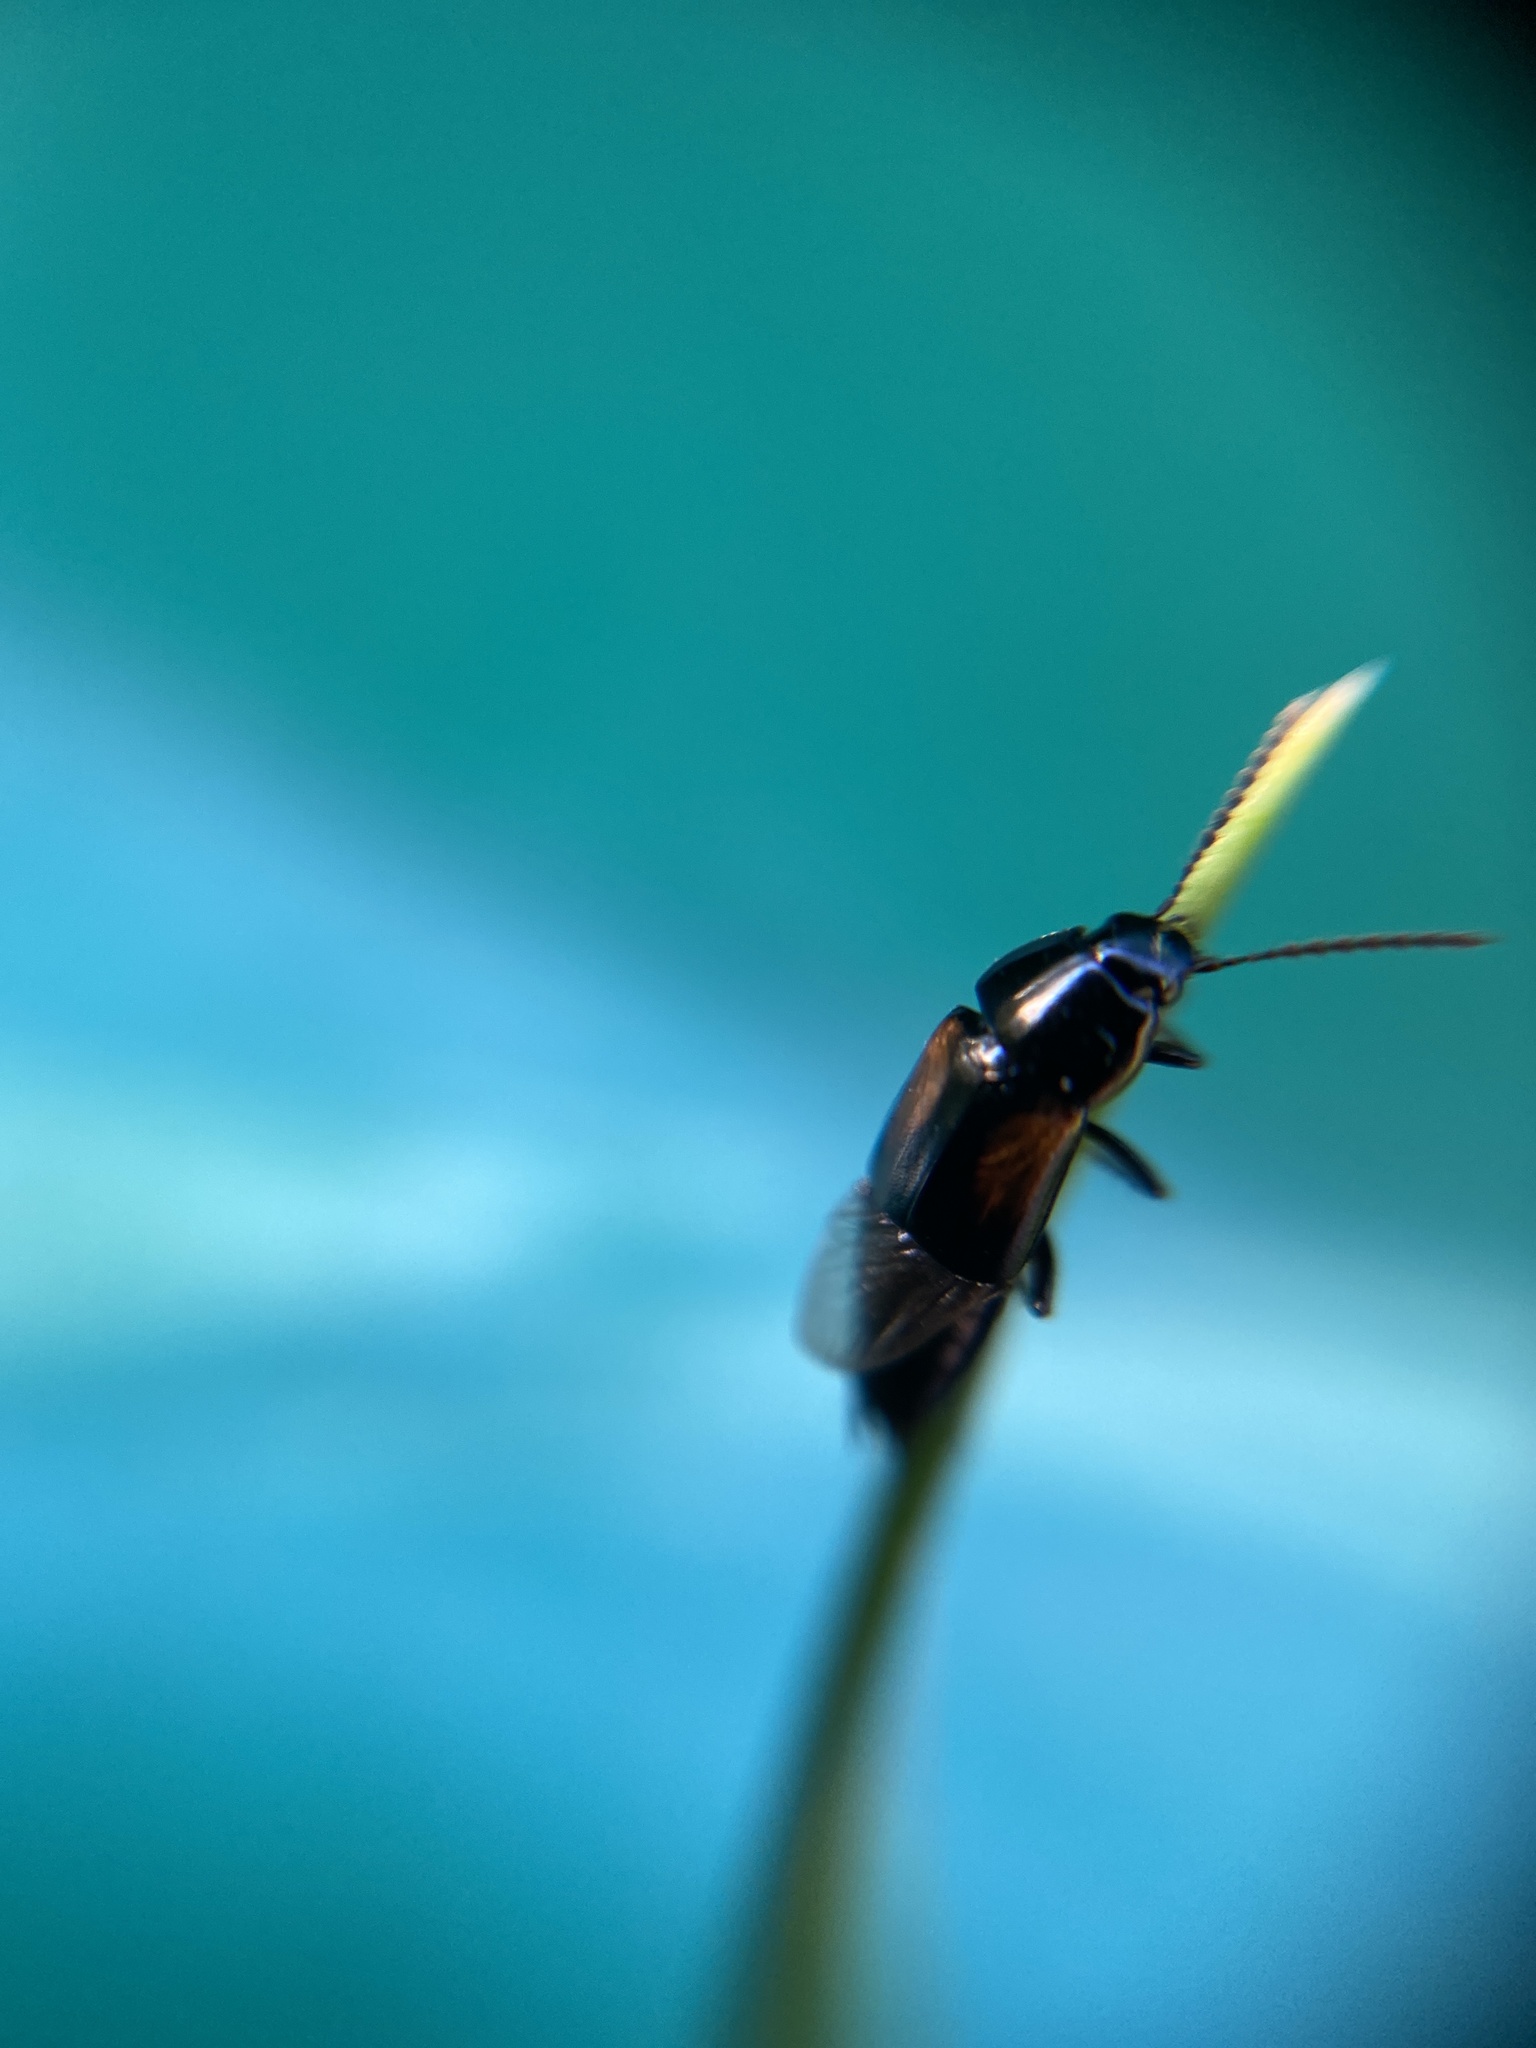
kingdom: Animalia
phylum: Arthropoda
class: Insecta
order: Coleoptera
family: Staphylinidae
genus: Tachinus
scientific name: Tachinus subterraneus
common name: Staph beetle
